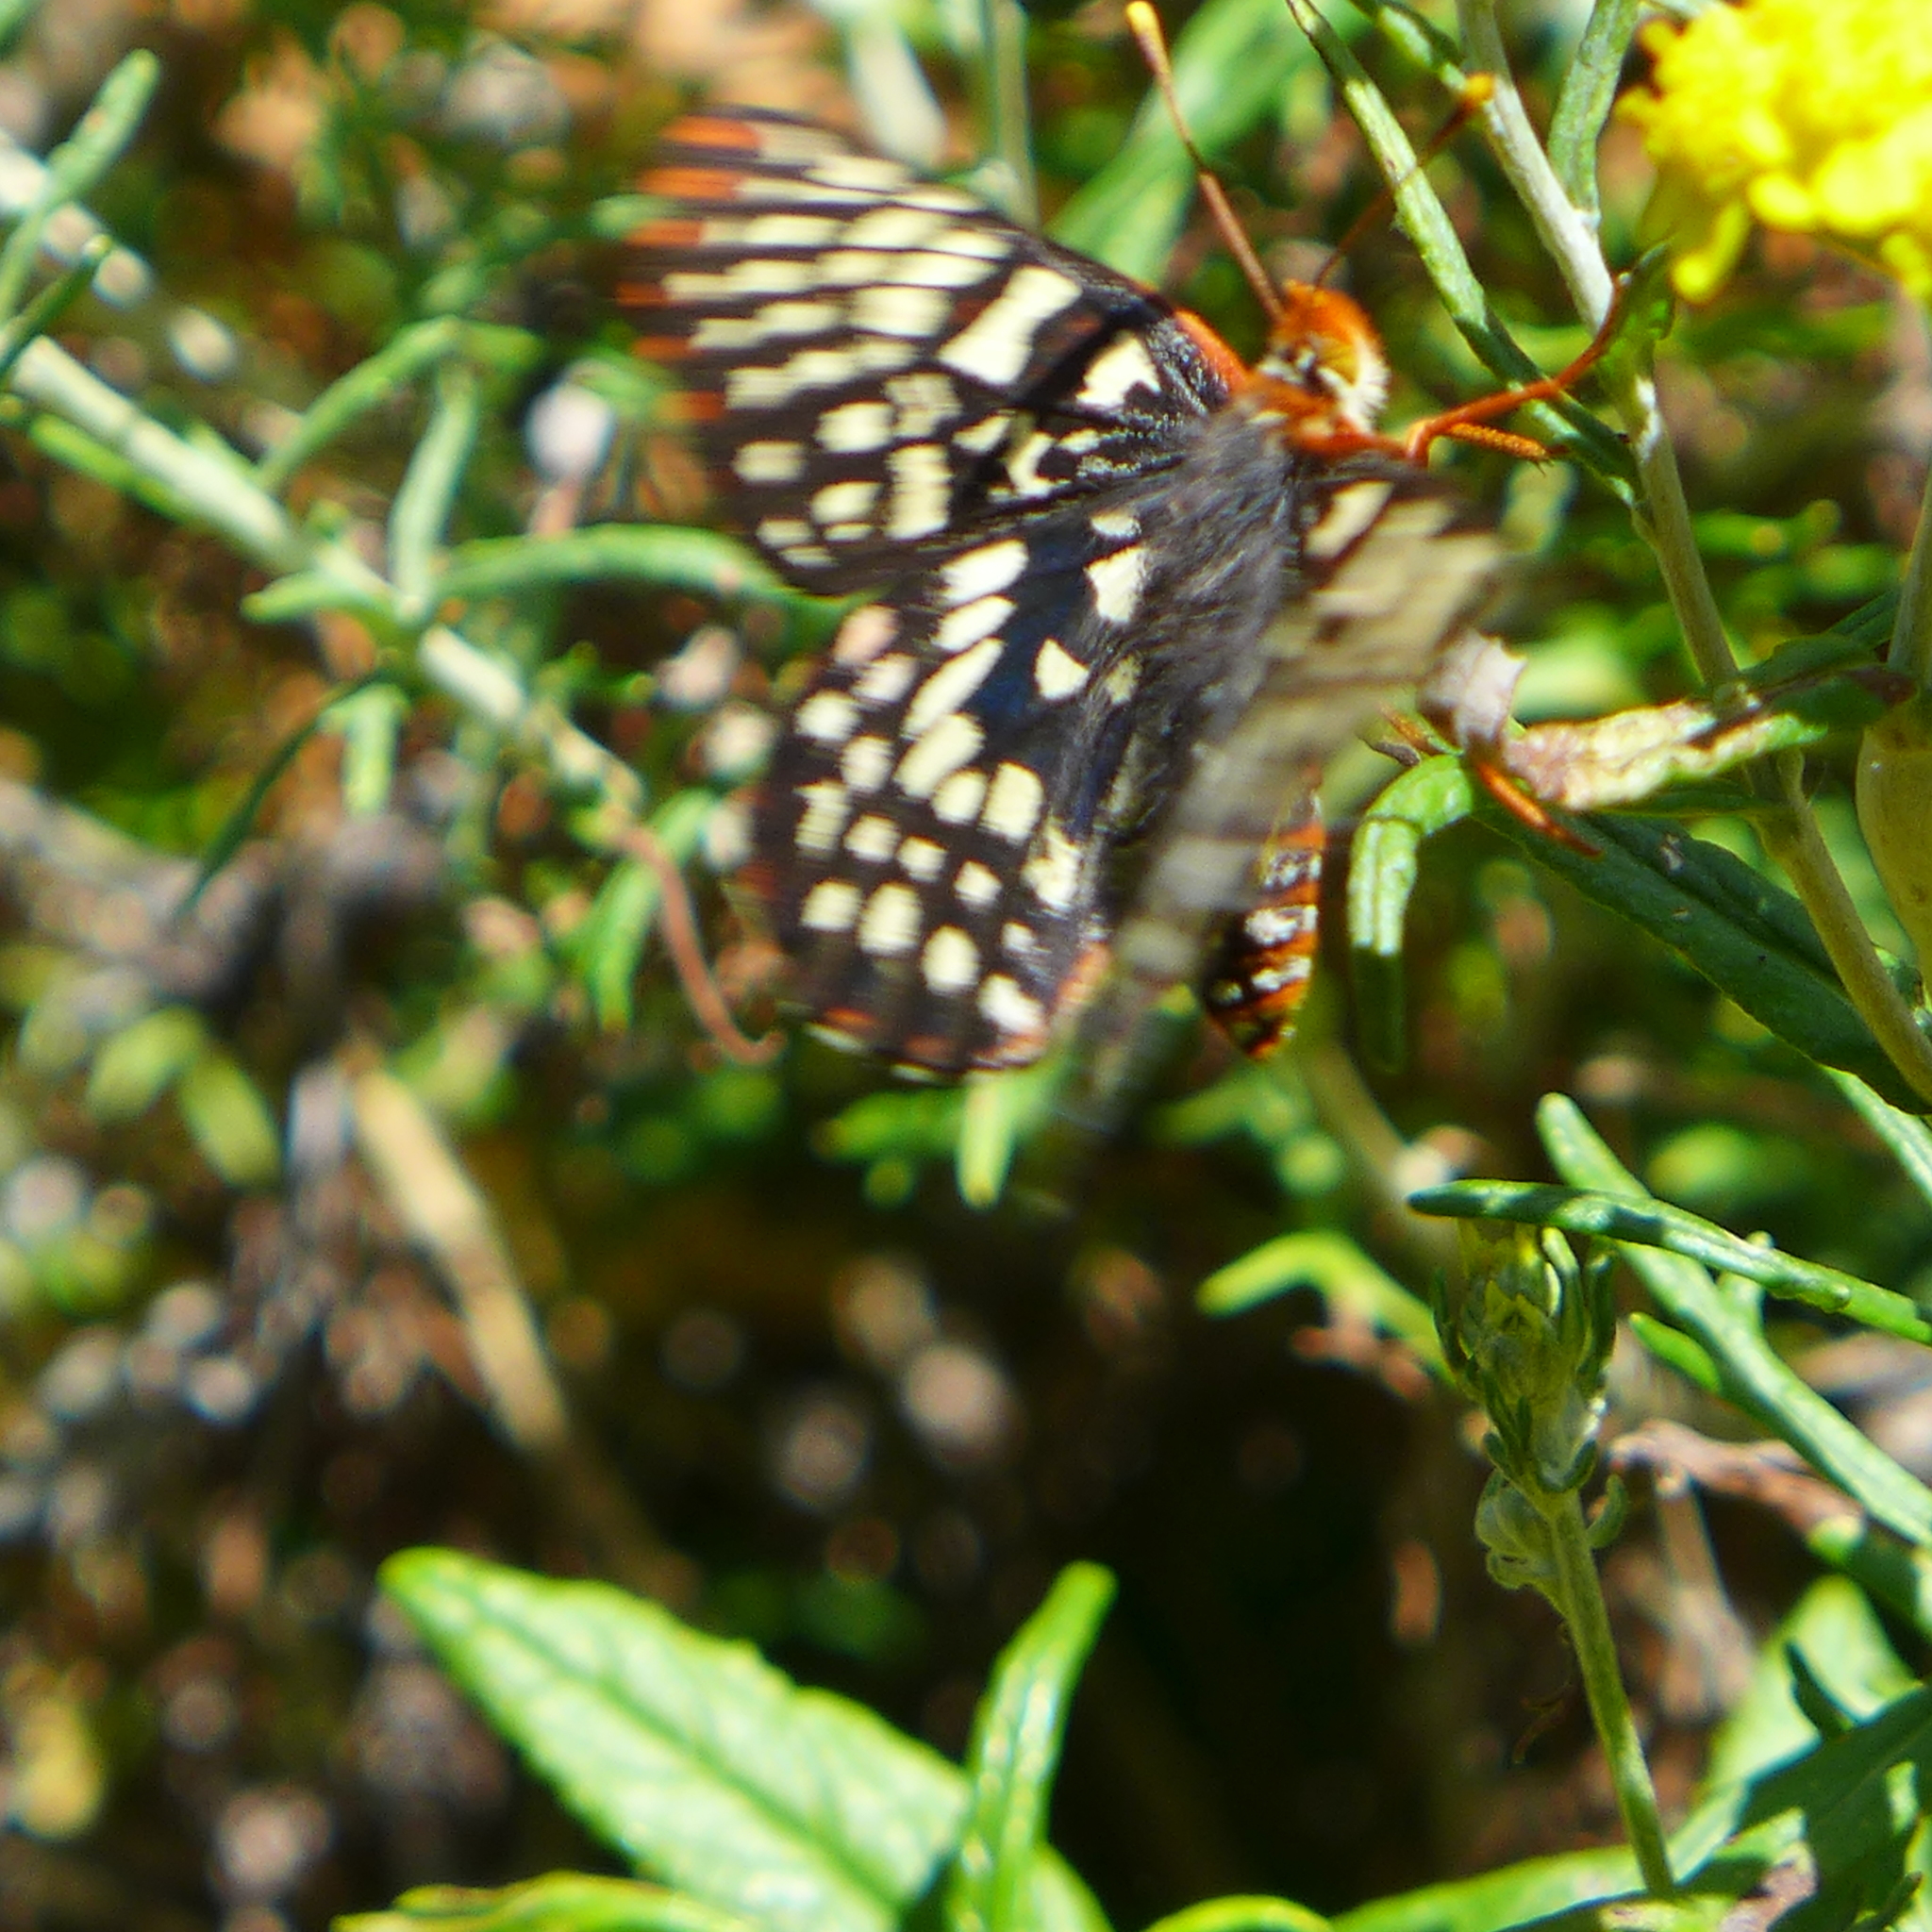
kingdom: Animalia
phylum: Arthropoda
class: Insecta
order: Lepidoptera
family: Nymphalidae
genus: Occidryas
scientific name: Occidryas chalcedona
